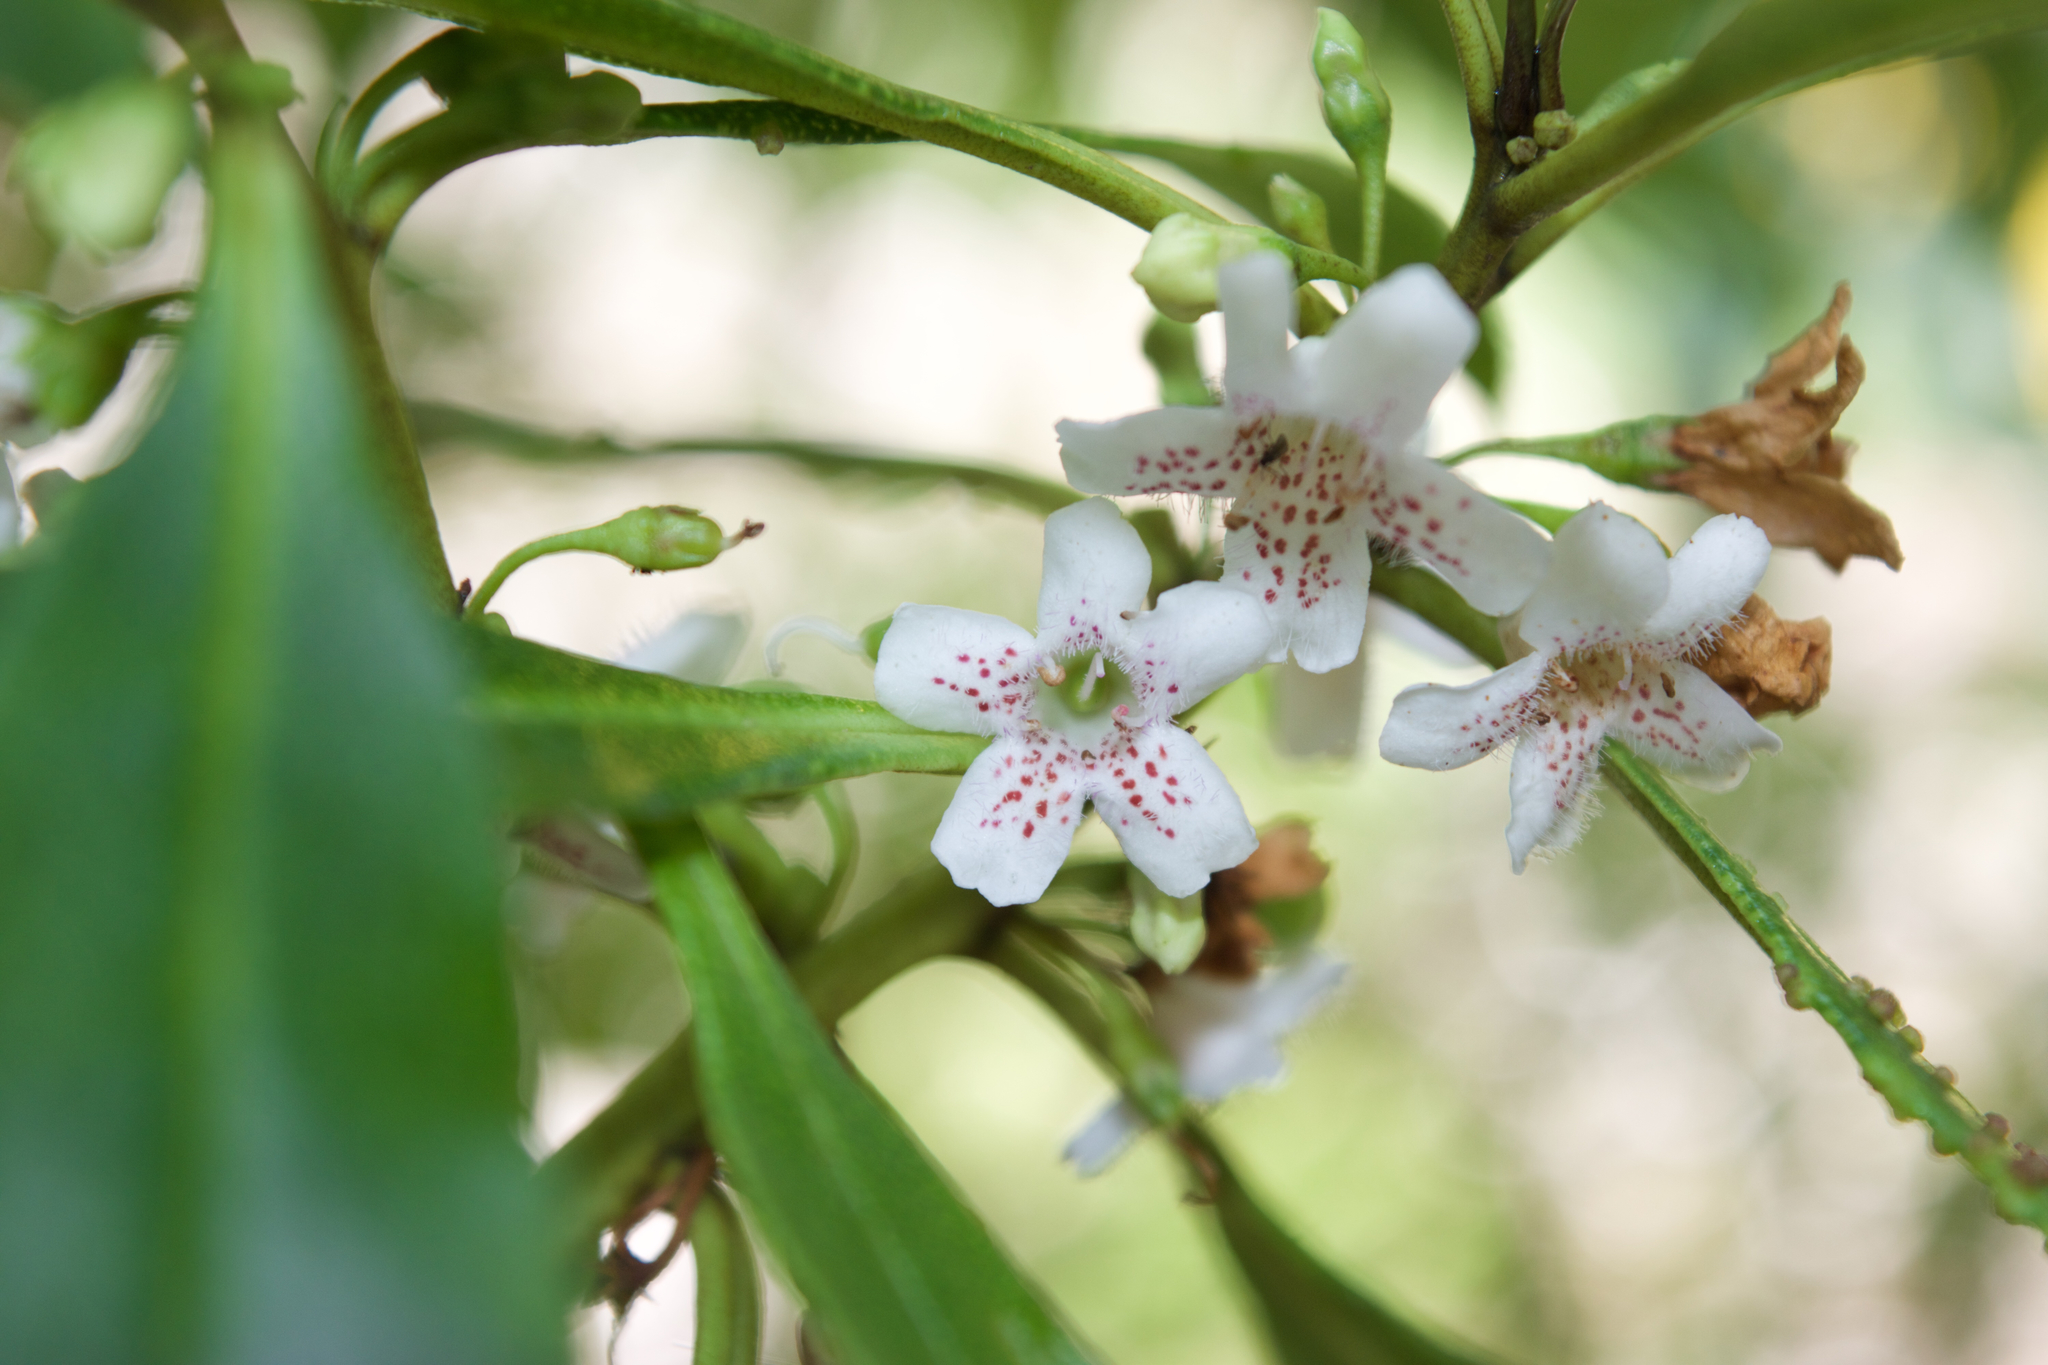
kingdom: Plantae
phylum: Tracheophyta
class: Magnoliopsida
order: Lamiales
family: Scrophulariaceae
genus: Myoporum
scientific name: Myoporum laetum
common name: Ngaio tree
